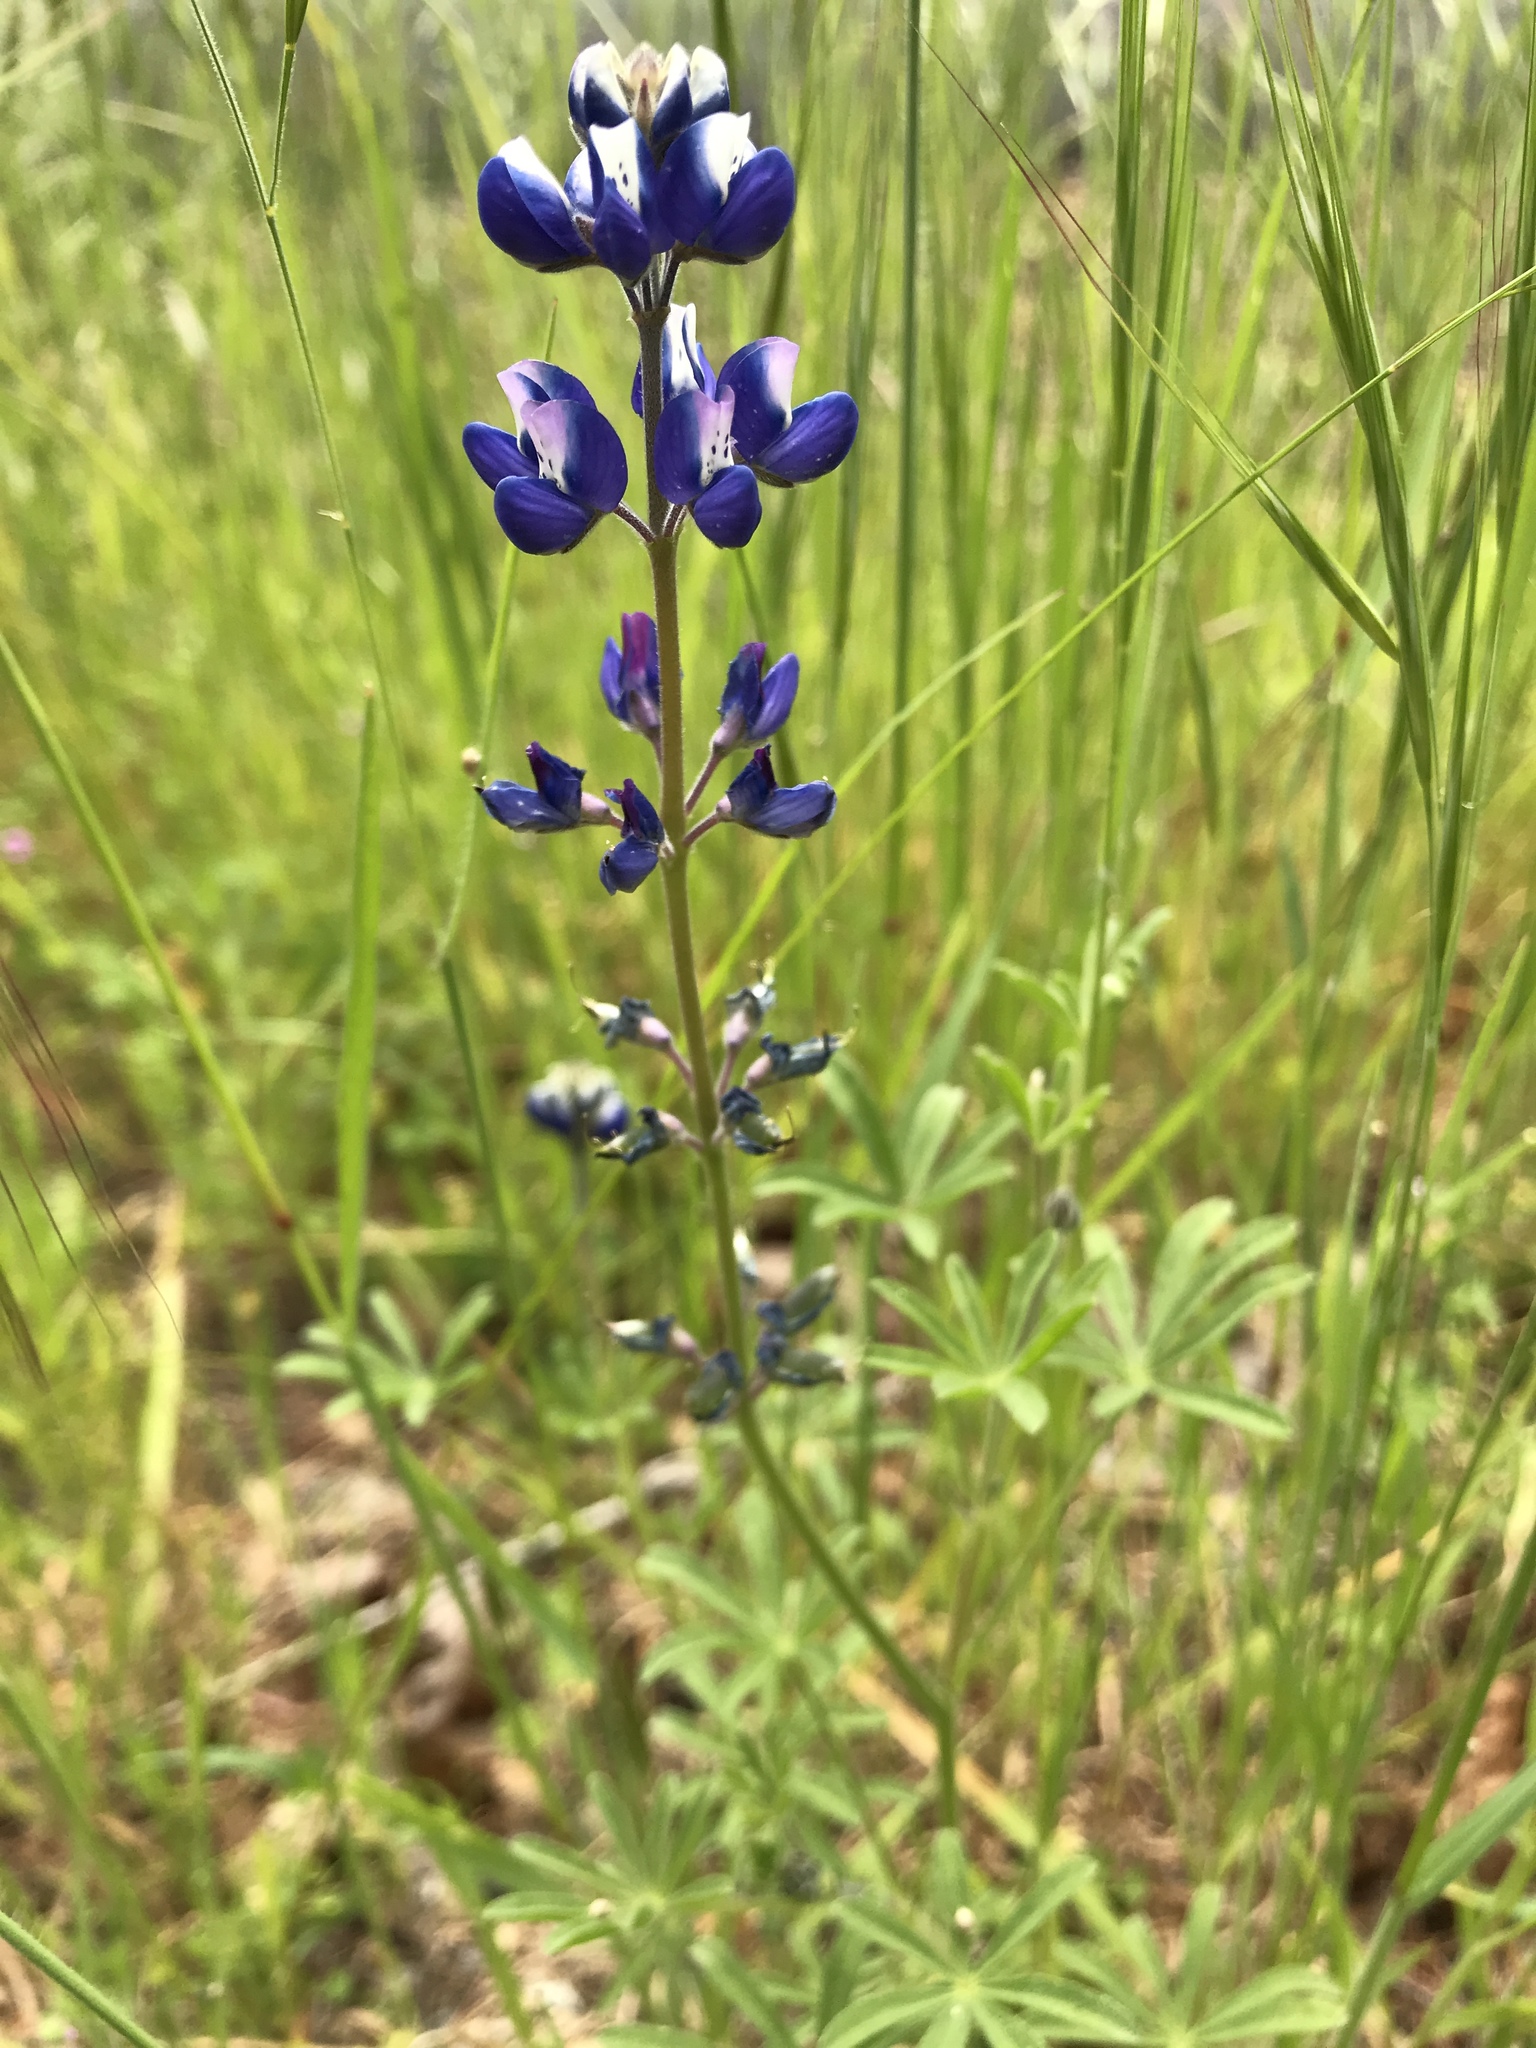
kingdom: Plantae
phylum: Tracheophyta
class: Magnoliopsida
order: Fabales
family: Fabaceae
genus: Lupinus
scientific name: Lupinus bicolor
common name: Miniature lupine
